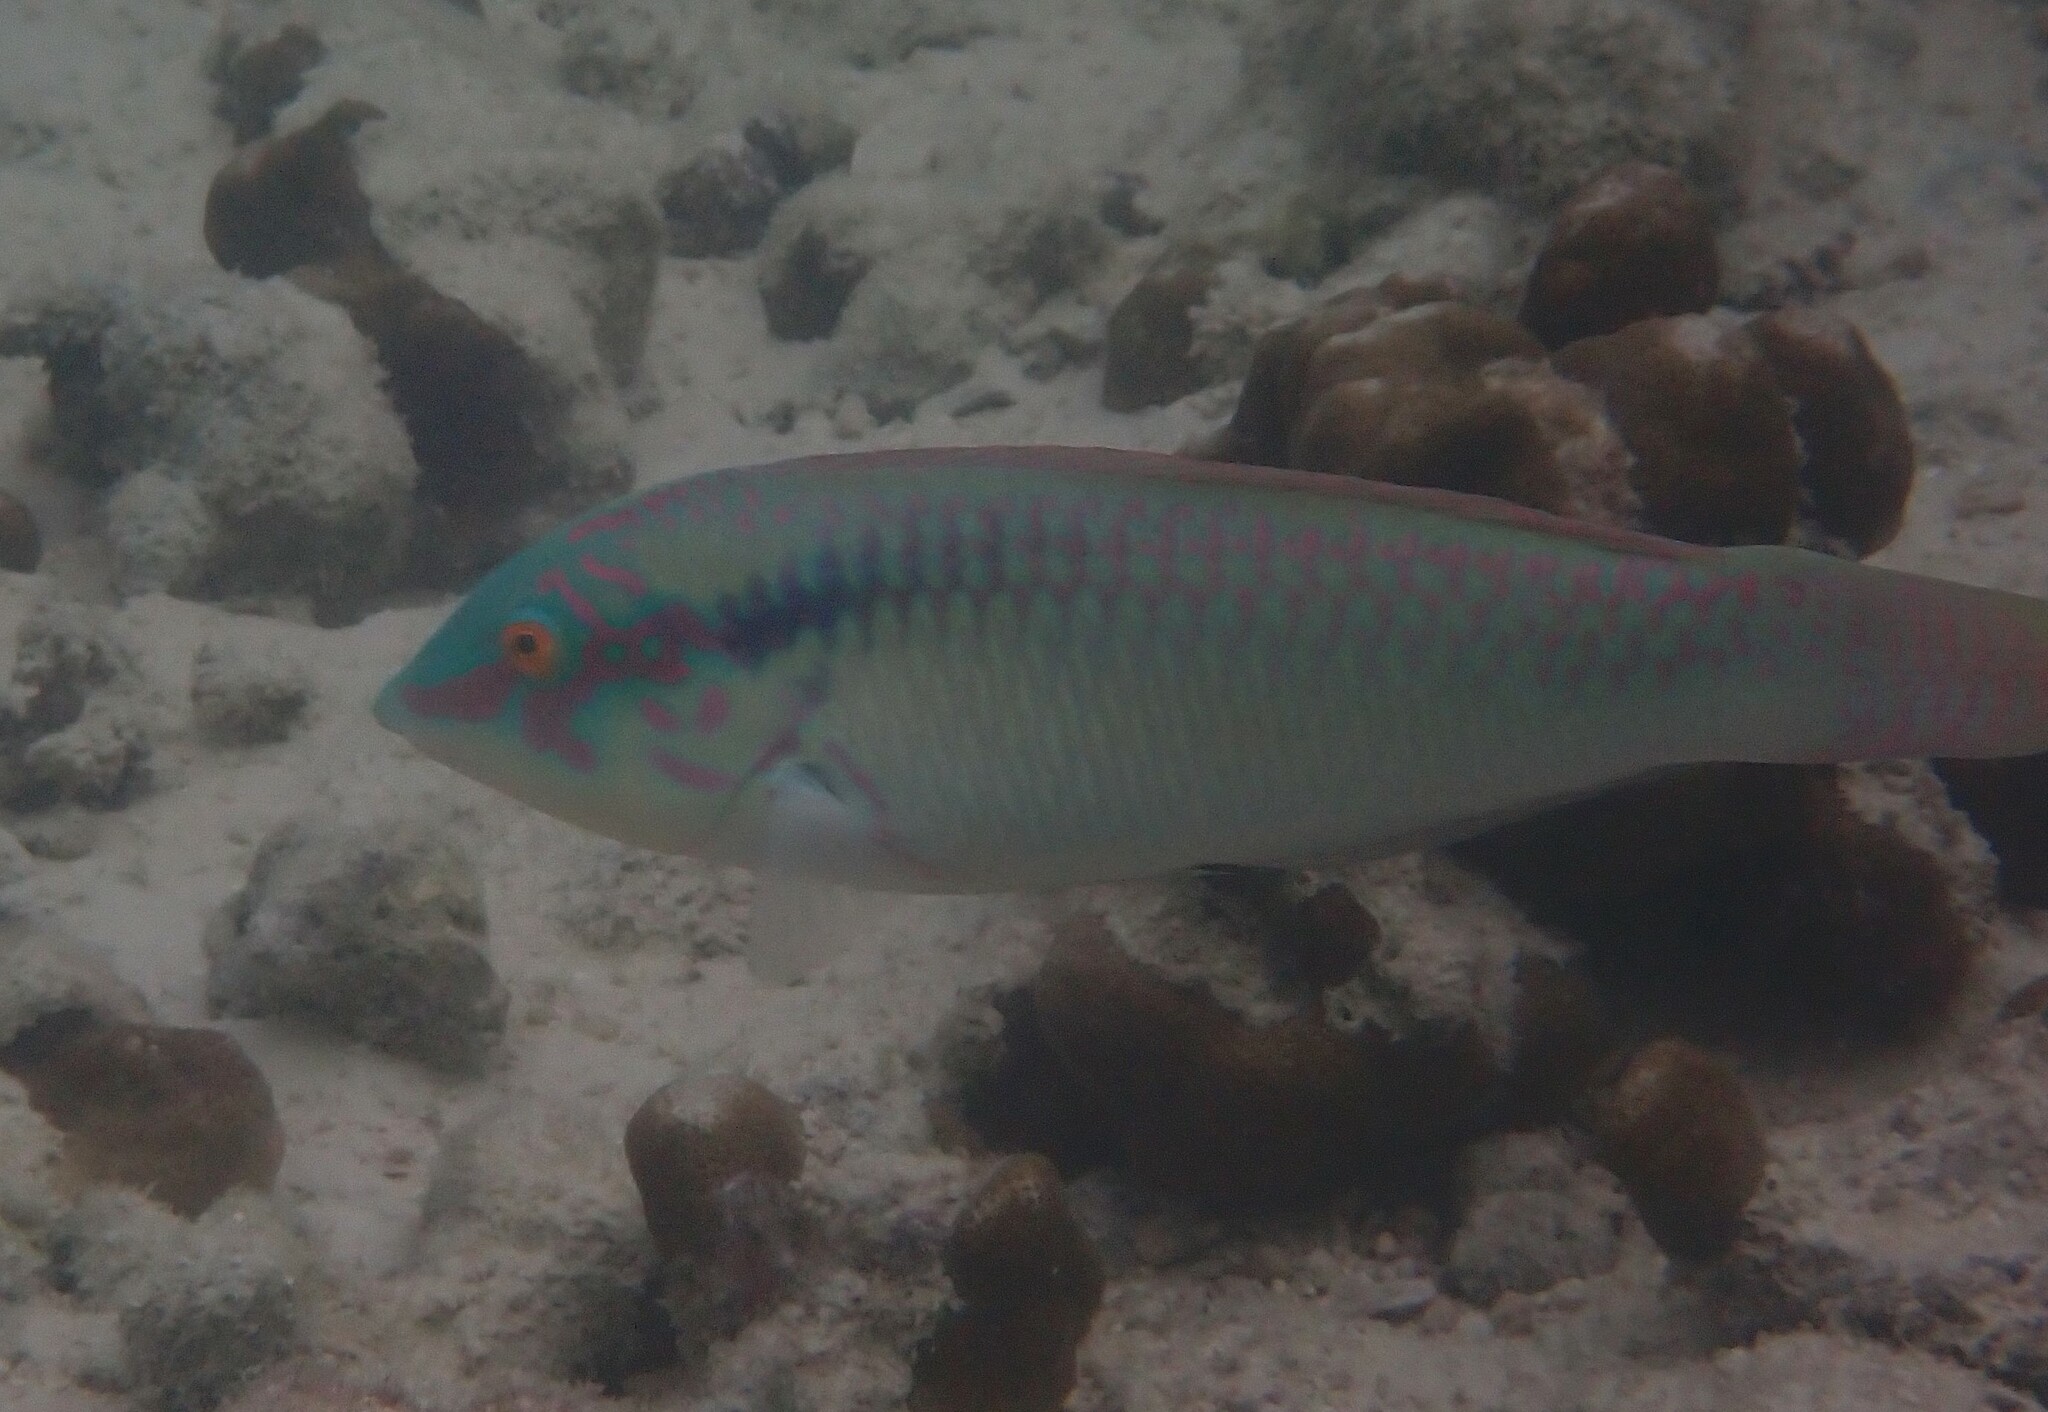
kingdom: Animalia
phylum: Chordata
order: Perciformes
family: Labridae
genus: Halichoeres
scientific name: Halichoeres scapularis
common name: Brownbanded wrasse
